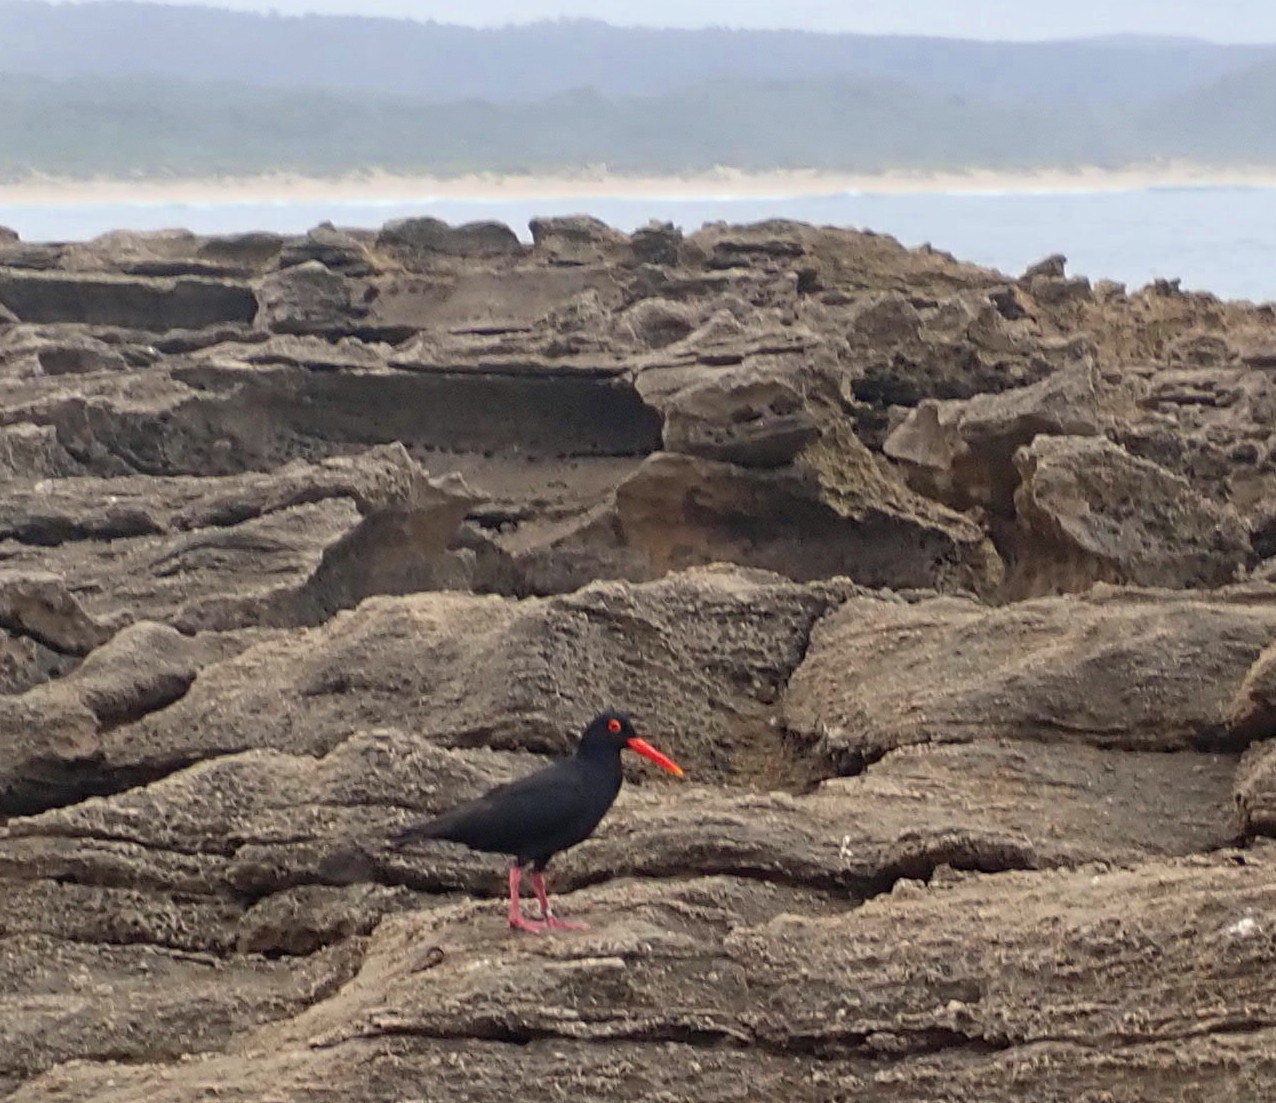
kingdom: Animalia
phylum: Chordata
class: Aves
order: Charadriiformes
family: Haematopodidae
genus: Haematopus
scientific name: Haematopus moquini
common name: African oystercatcher
